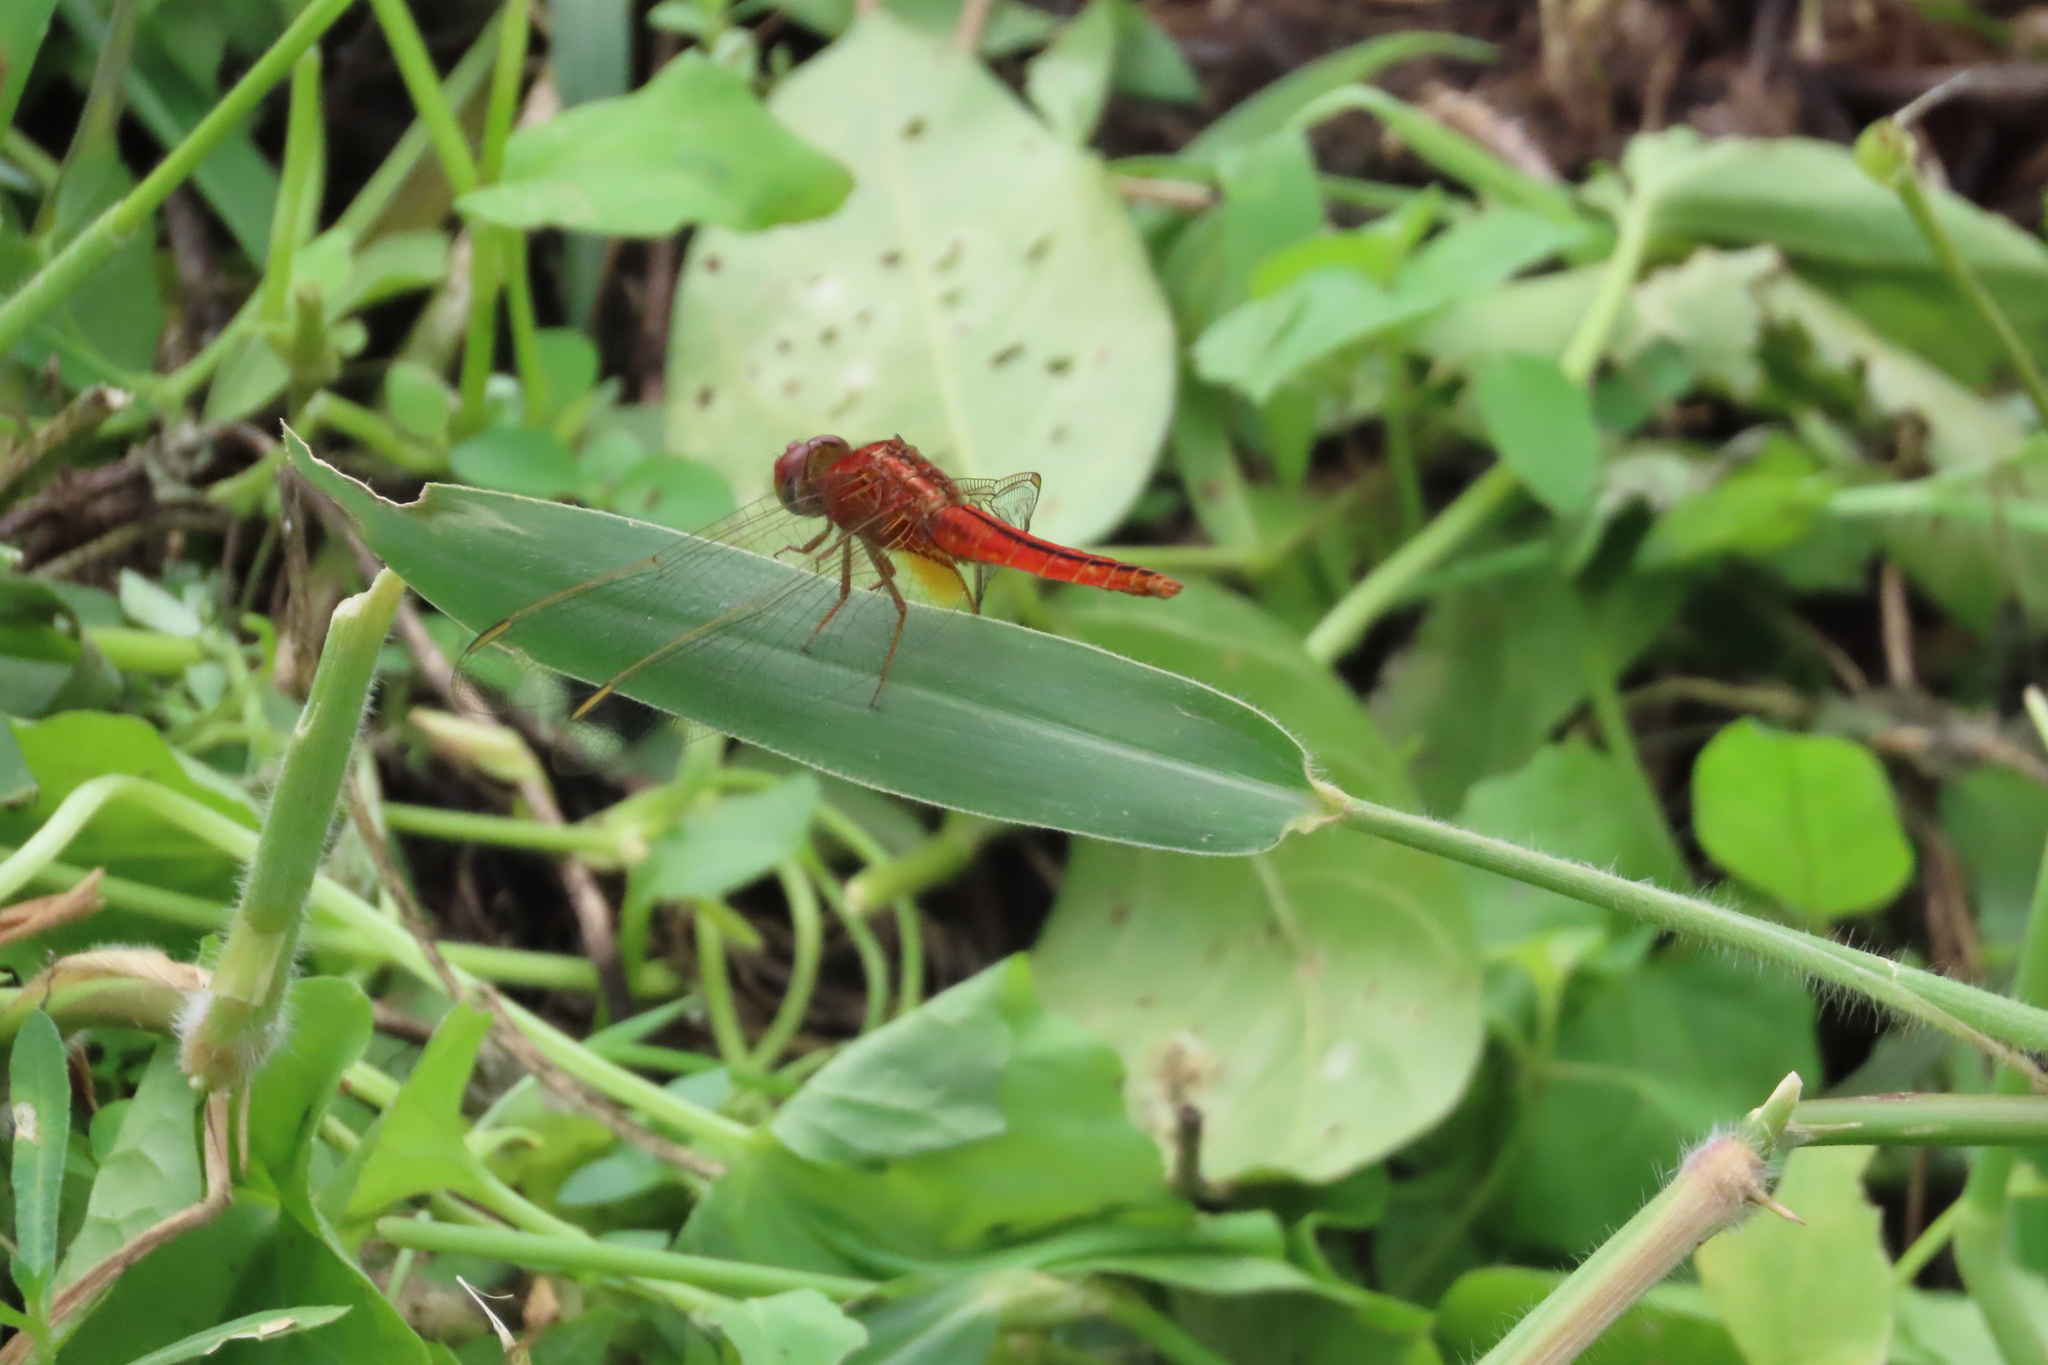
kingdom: Animalia
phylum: Arthropoda
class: Insecta
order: Odonata
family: Libellulidae
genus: Crocothemis
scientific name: Crocothemis servilia
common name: Scarlet skimmer
